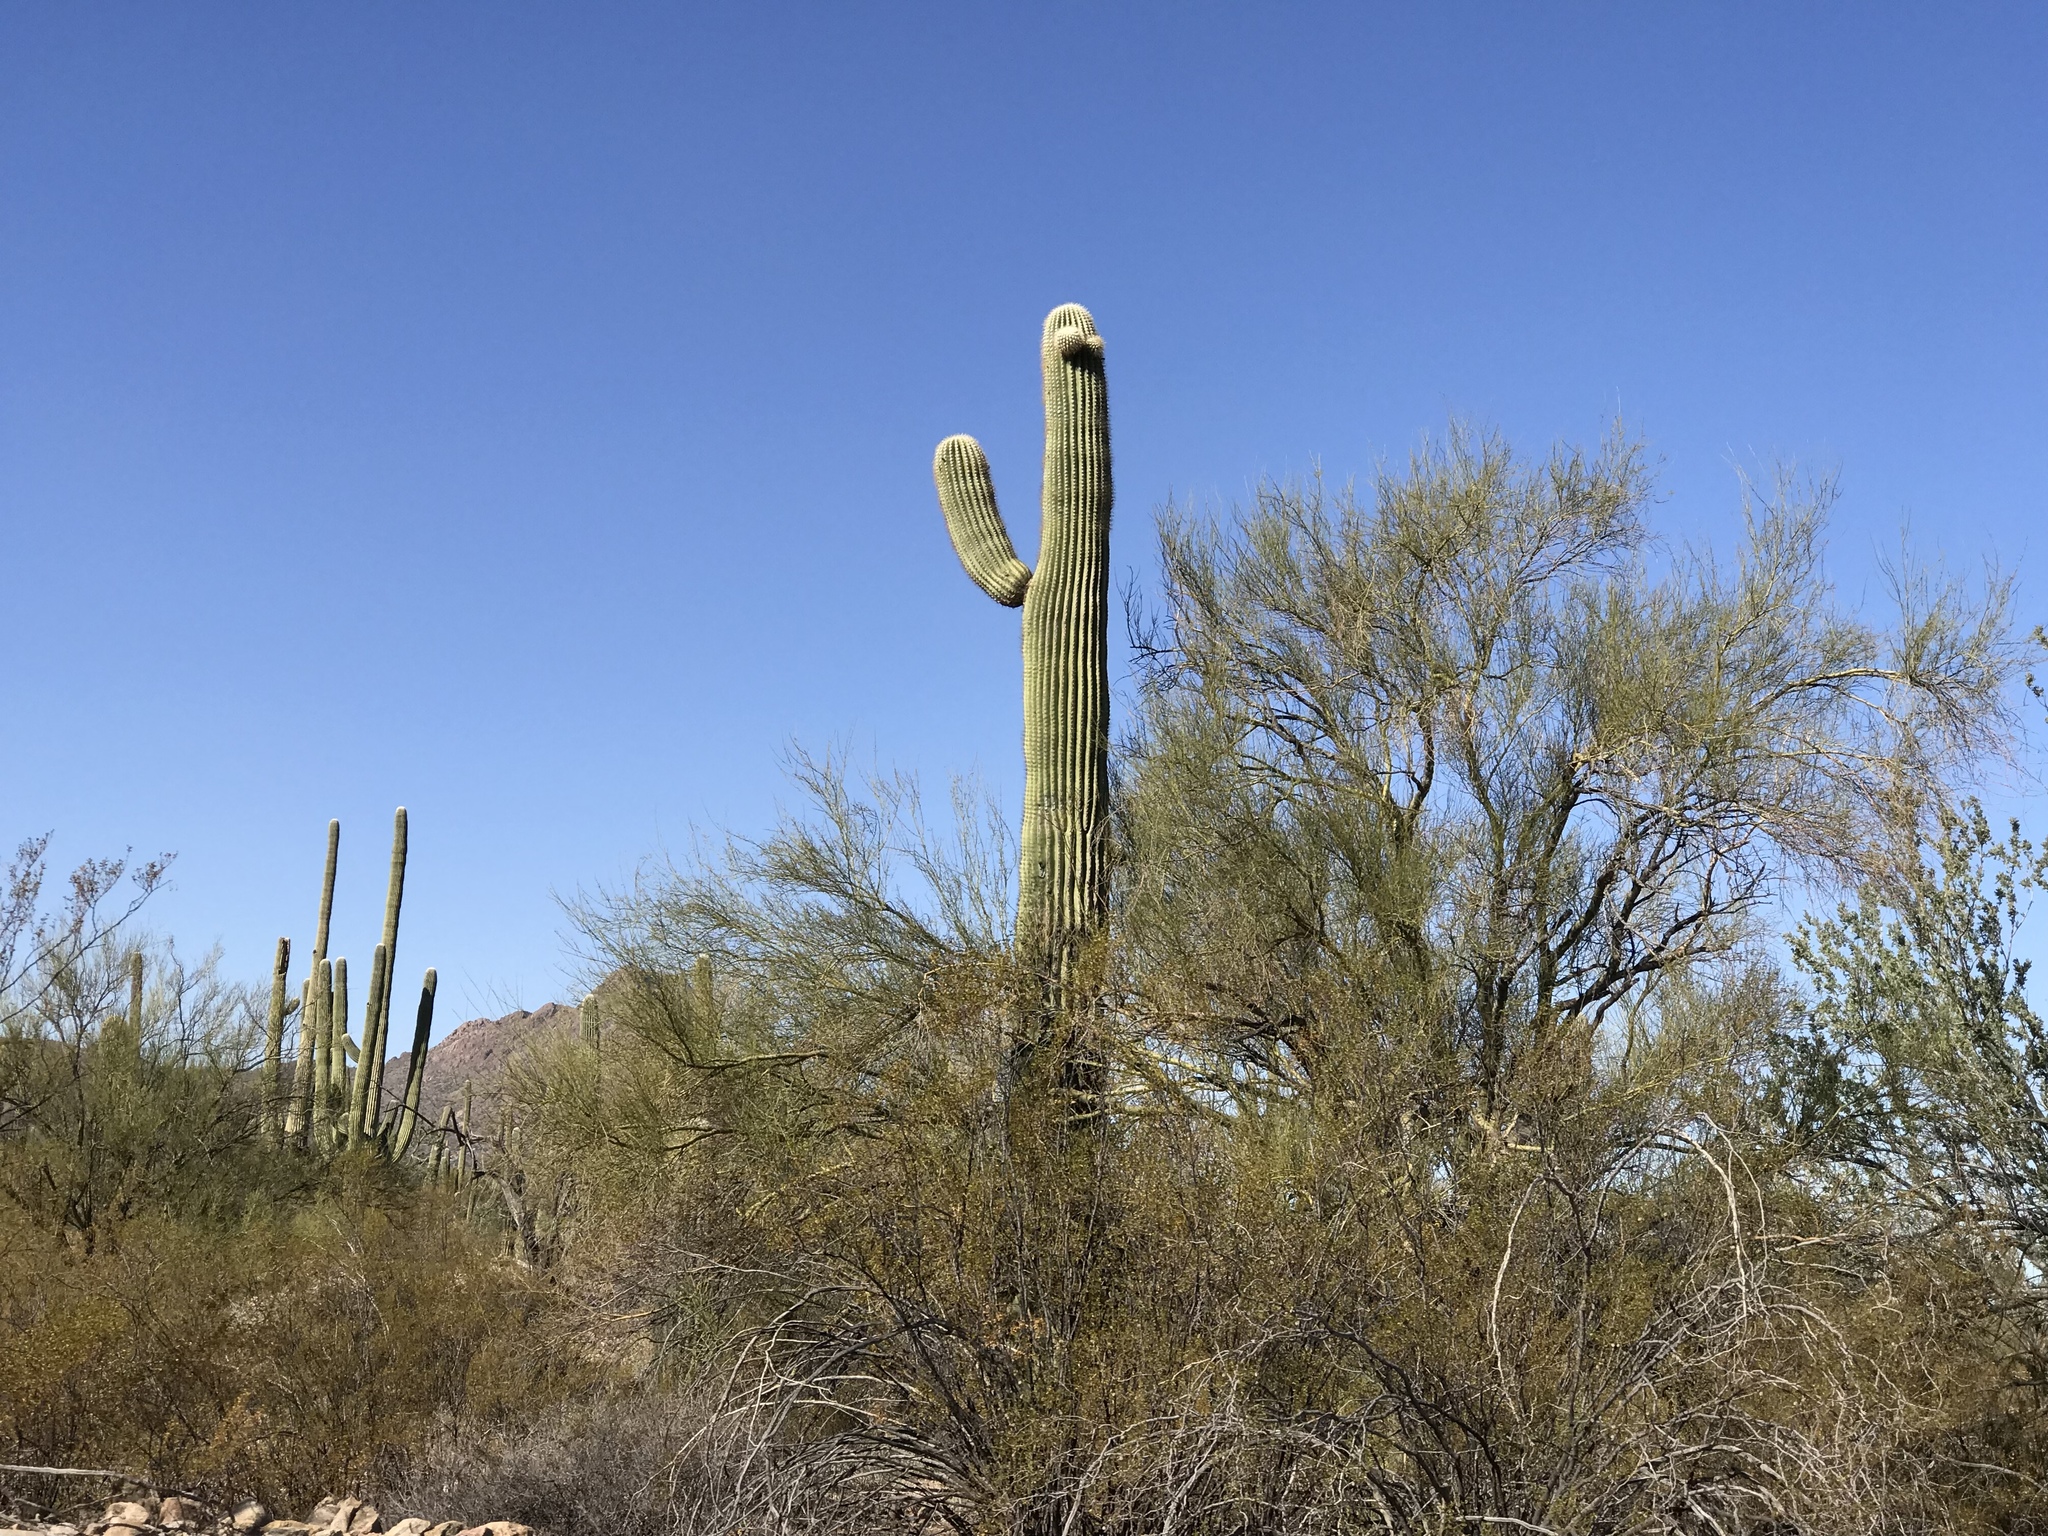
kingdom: Plantae
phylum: Tracheophyta
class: Magnoliopsida
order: Caryophyllales
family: Cactaceae
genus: Carnegiea
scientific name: Carnegiea gigantea
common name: Saguaro
